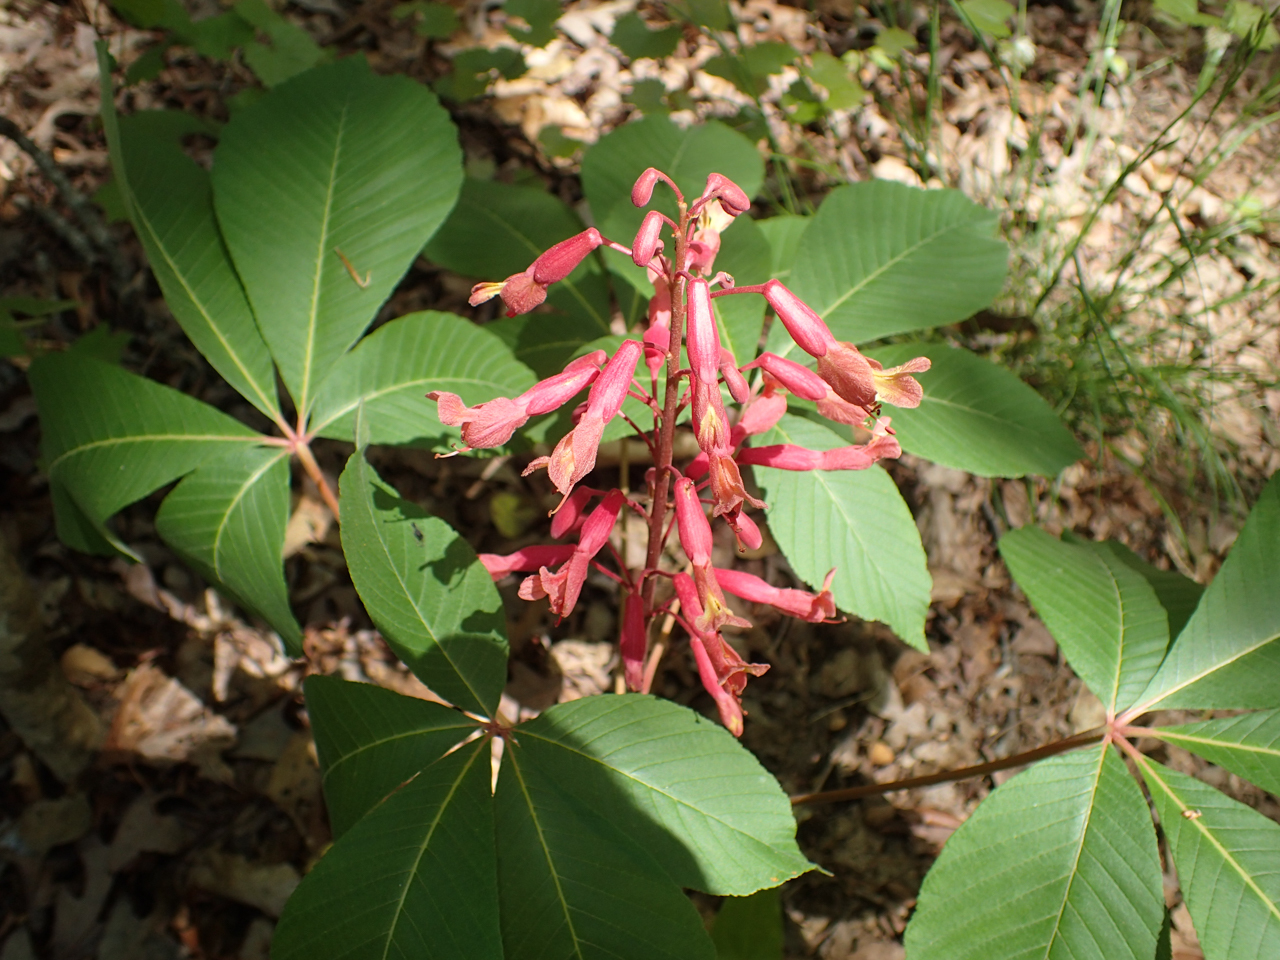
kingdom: Plantae
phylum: Tracheophyta
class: Magnoliopsida
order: Sapindales
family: Sapindaceae
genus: Aesculus
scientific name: Aesculus pavia
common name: Red buckeye
